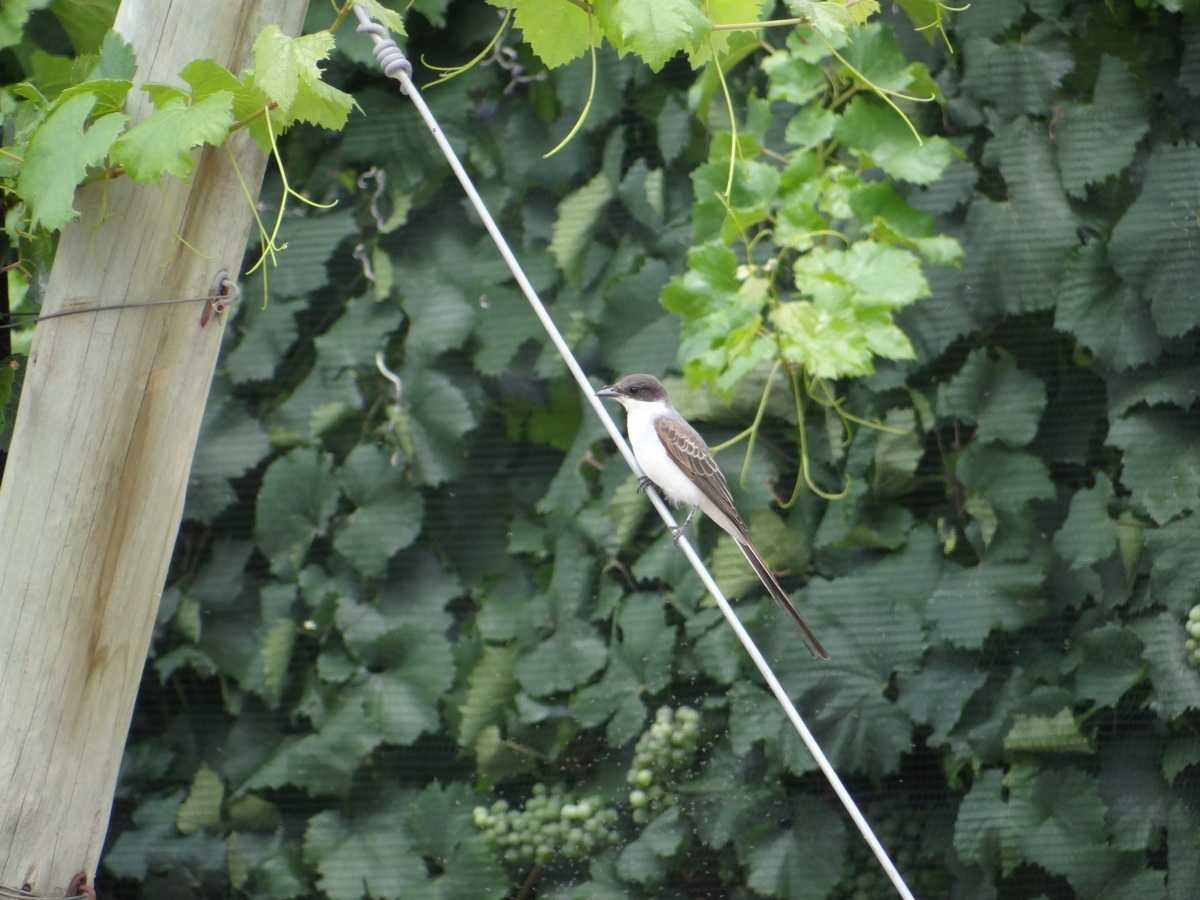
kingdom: Animalia
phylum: Chordata
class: Aves
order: Passeriformes
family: Tyrannidae
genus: Tyrannus
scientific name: Tyrannus savana
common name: Fork-tailed flycatcher
